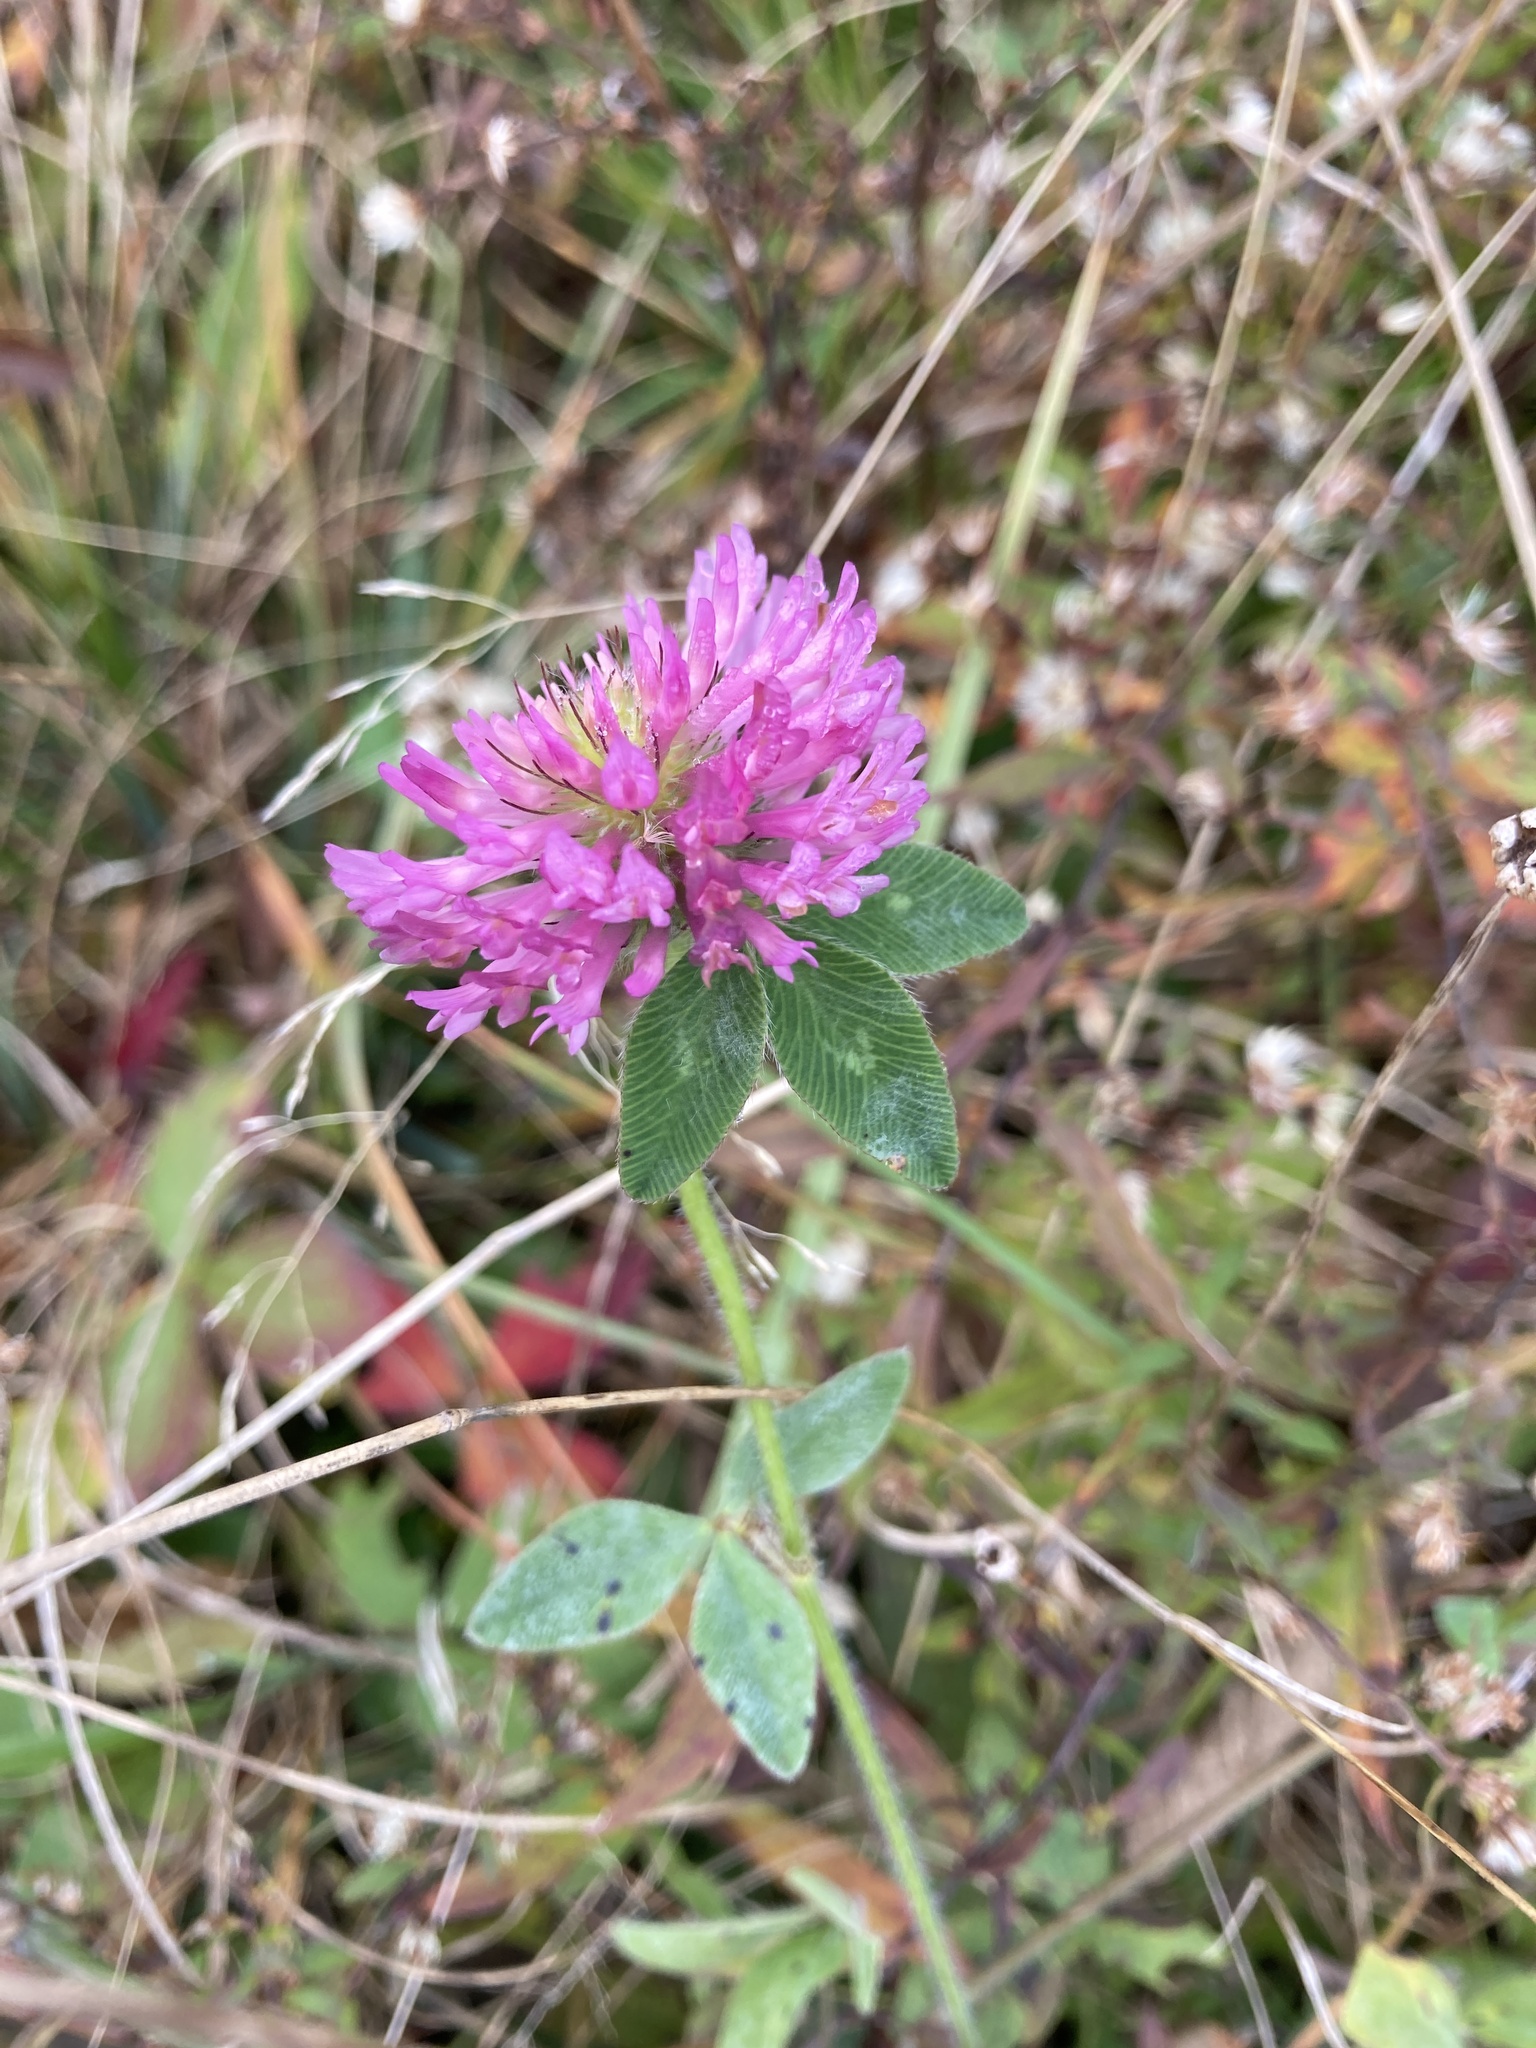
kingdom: Plantae
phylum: Tracheophyta
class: Magnoliopsida
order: Fabales
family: Fabaceae
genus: Trifolium
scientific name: Trifolium pratense
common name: Red clover
